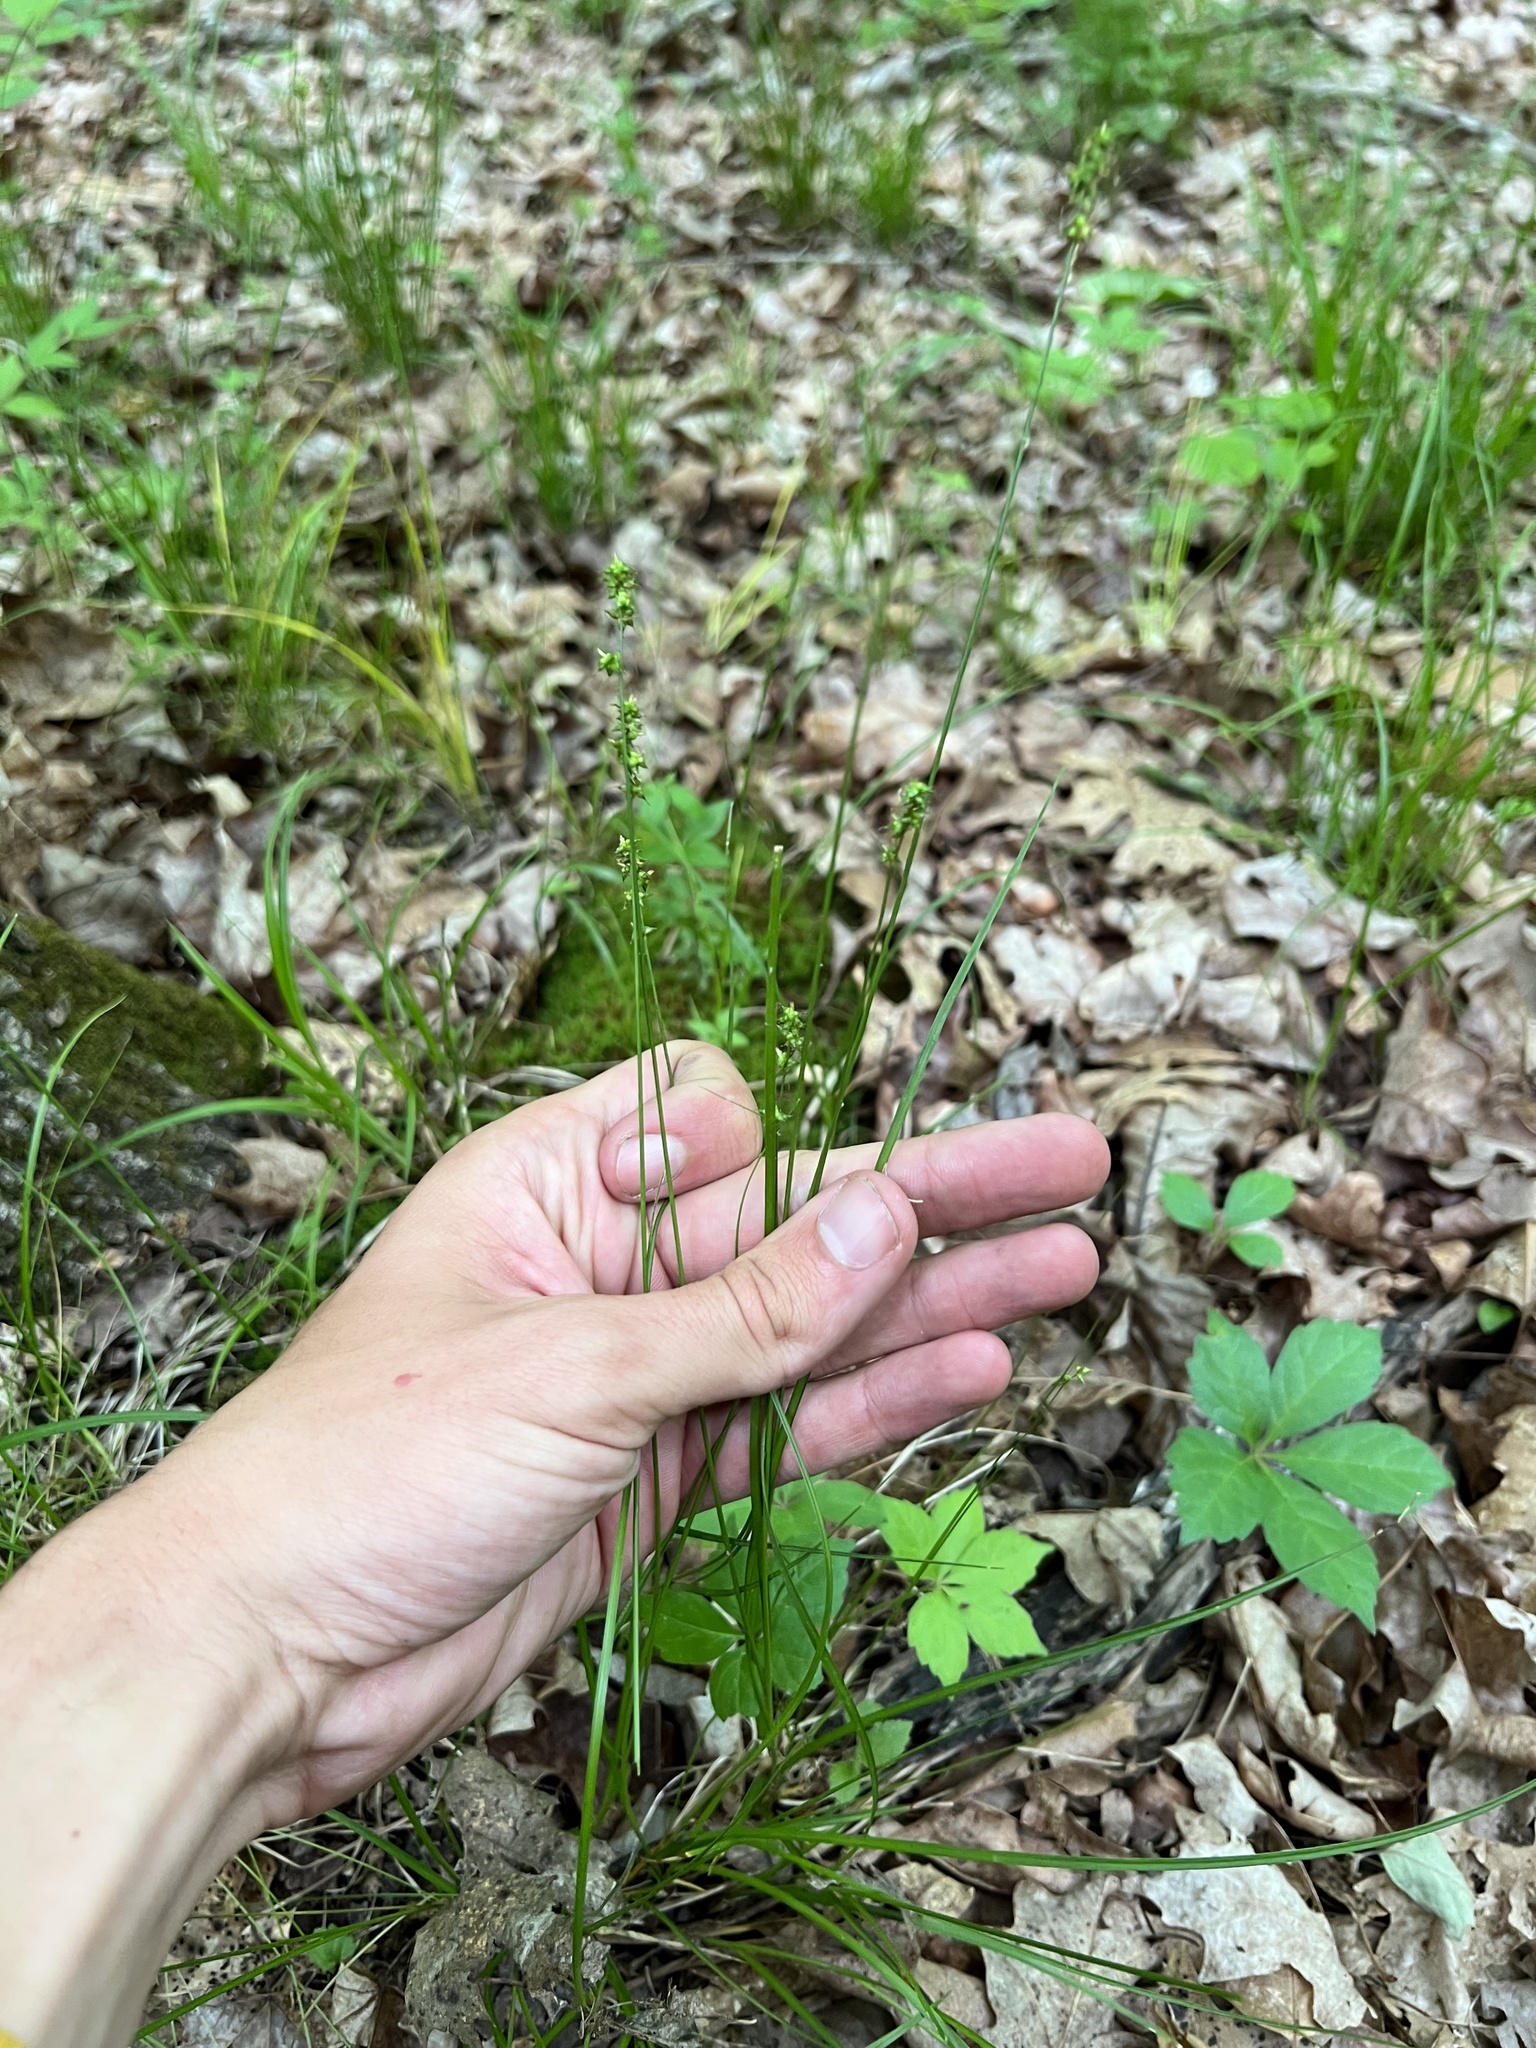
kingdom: Plantae
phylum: Tracheophyta
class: Liliopsida
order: Poales
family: Cyperaceae
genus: Carex
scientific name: Carex retroflexa
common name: Reflexed sedge
